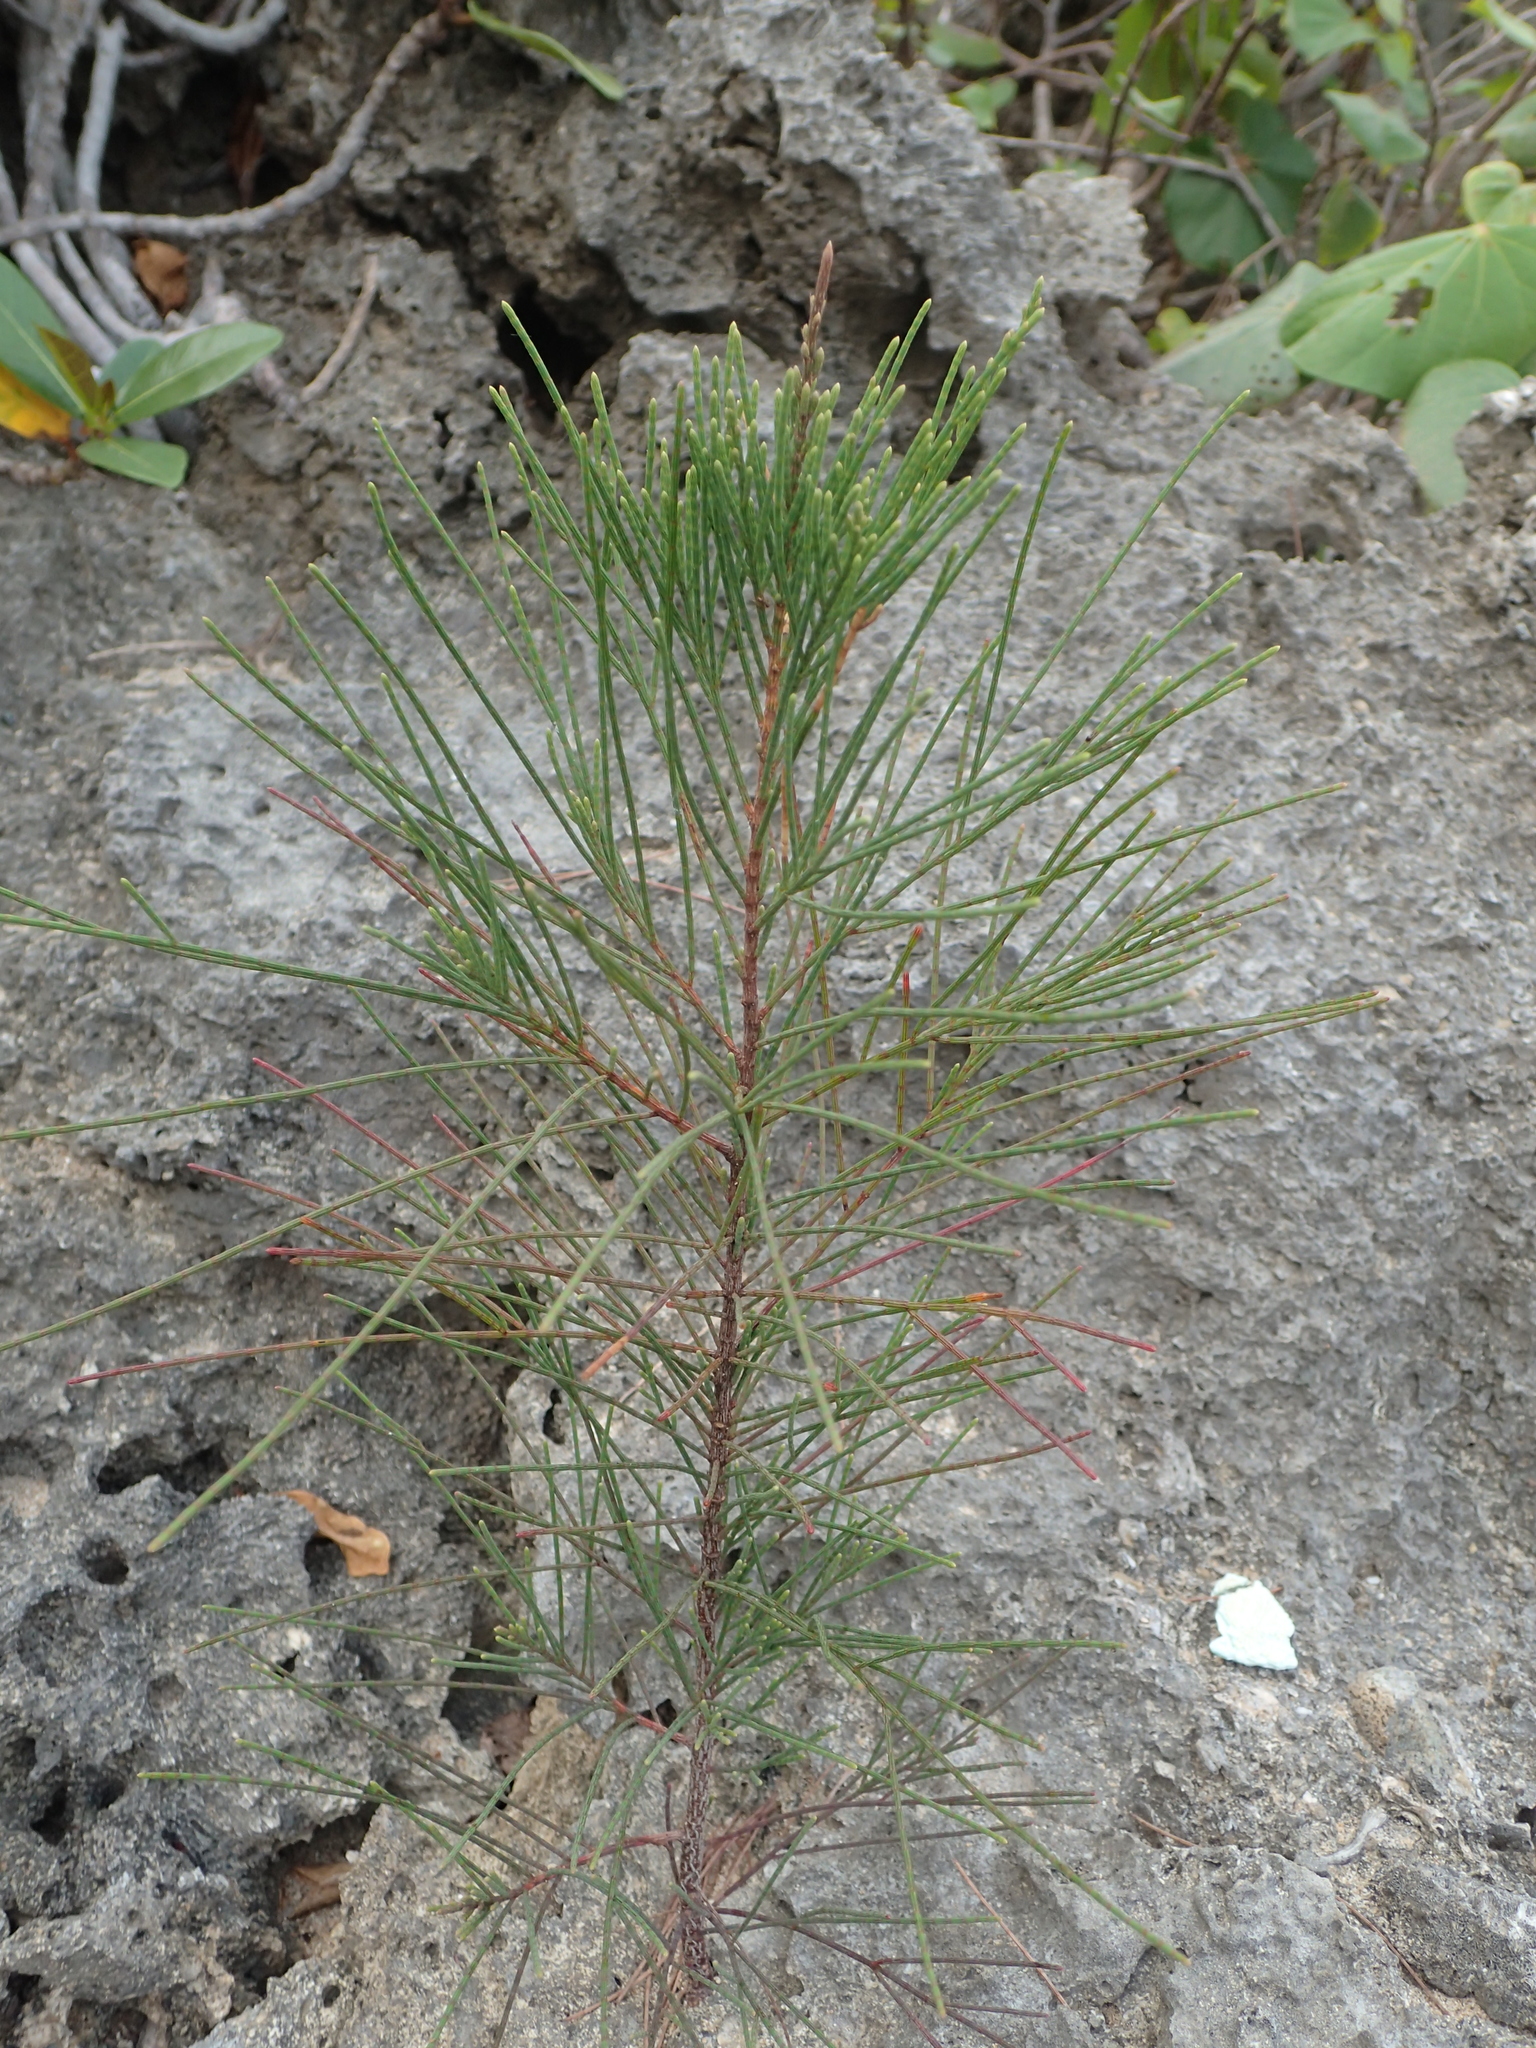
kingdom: Plantae
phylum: Tracheophyta
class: Magnoliopsida
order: Fagales
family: Casuarinaceae
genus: Casuarina
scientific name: Casuarina equisetifolia
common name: Beach sheoak
